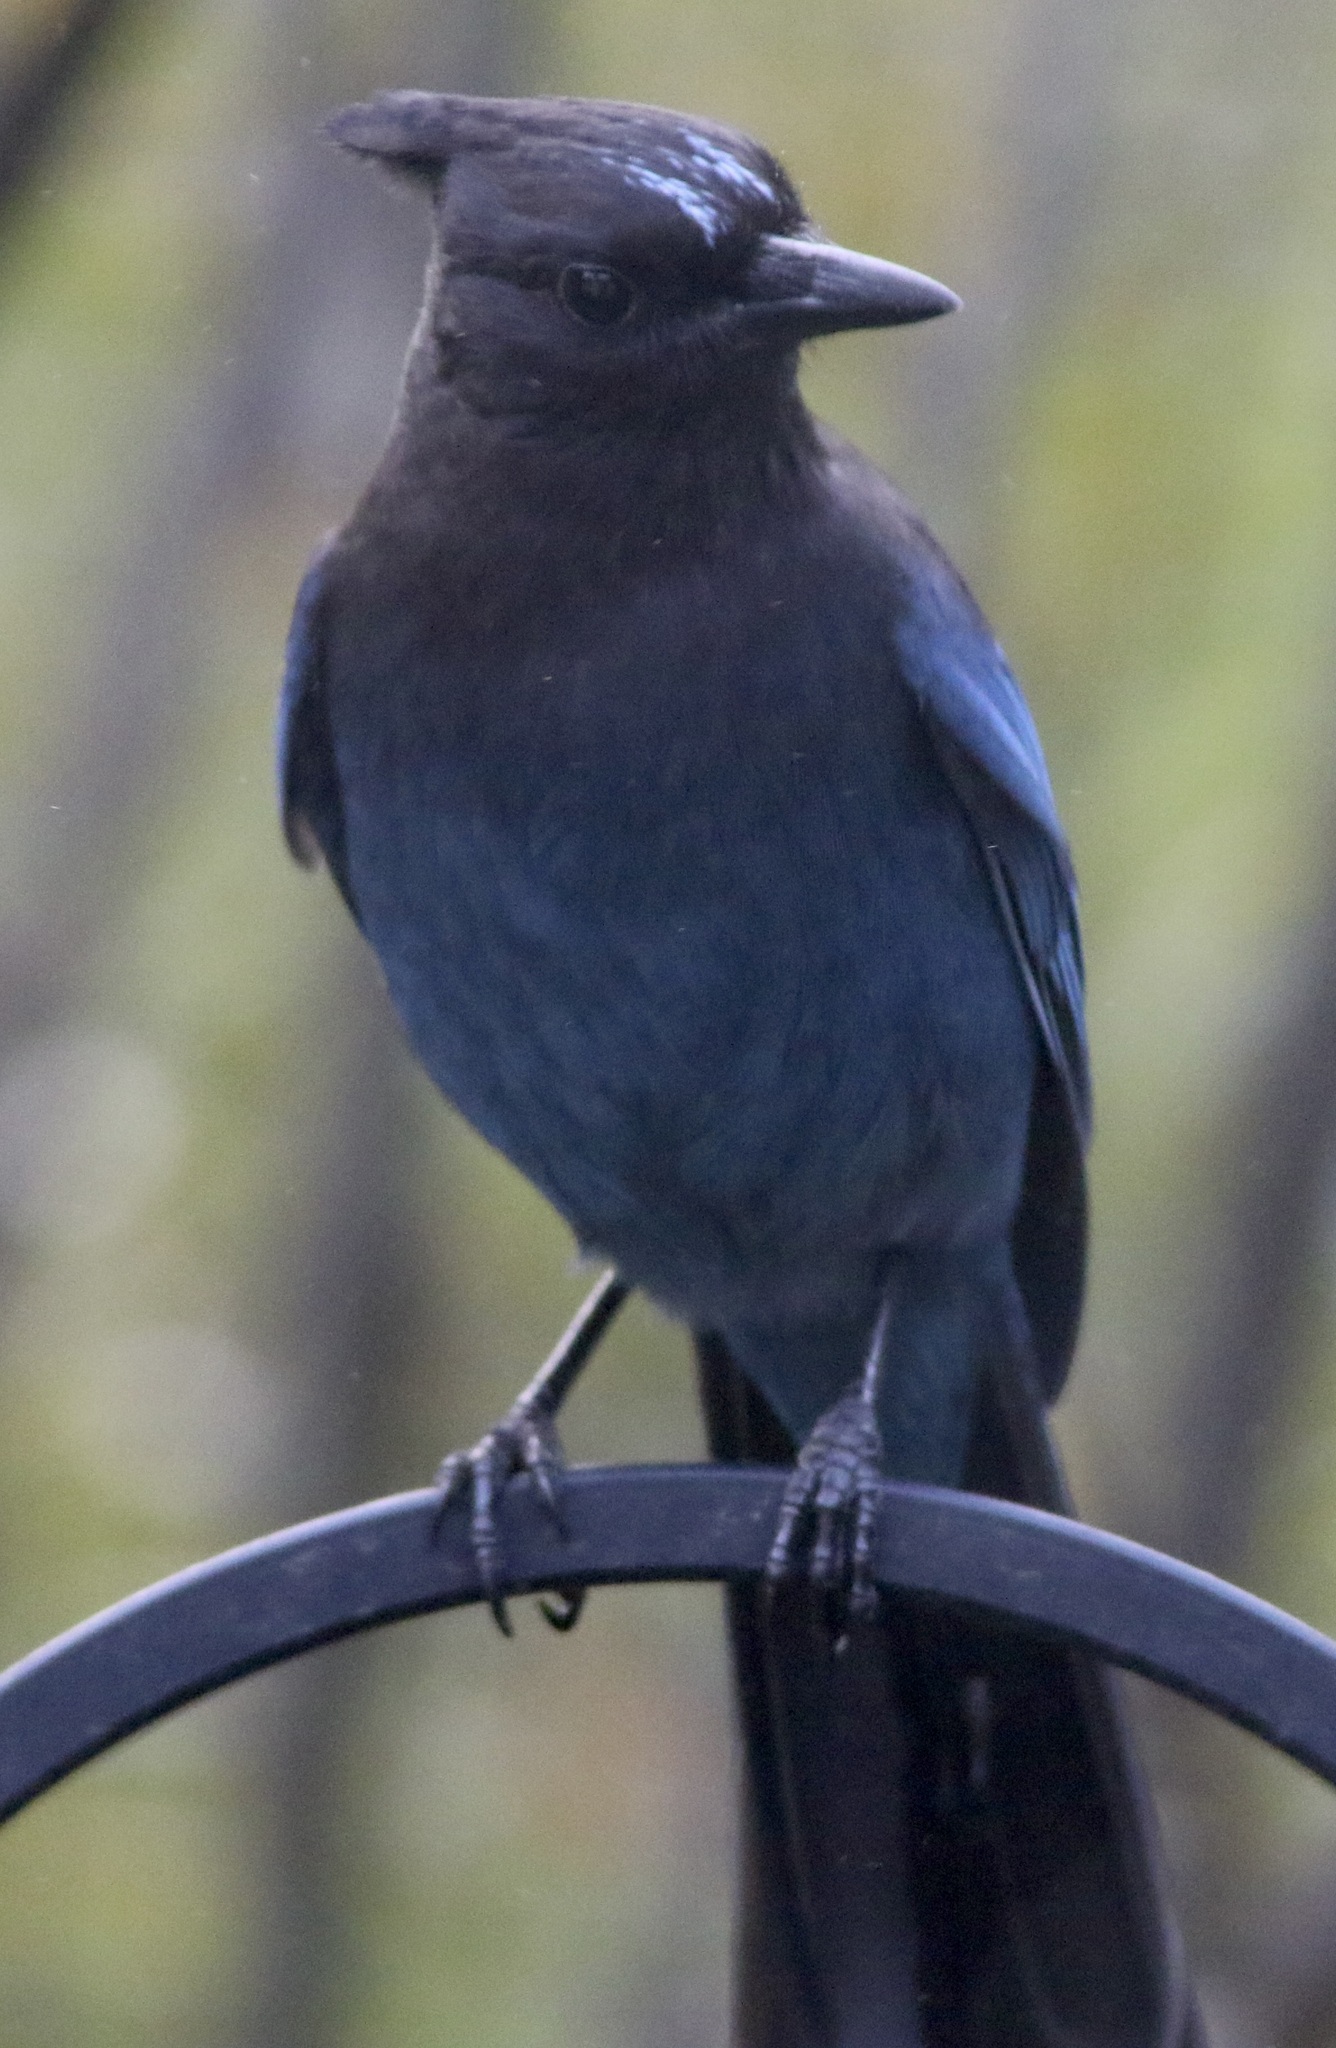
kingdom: Animalia
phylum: Chordata
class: Aves
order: Passeriformes
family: Corvidae
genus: Cyanocitta
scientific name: Cyanocitta stelleri
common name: Steller's jay
